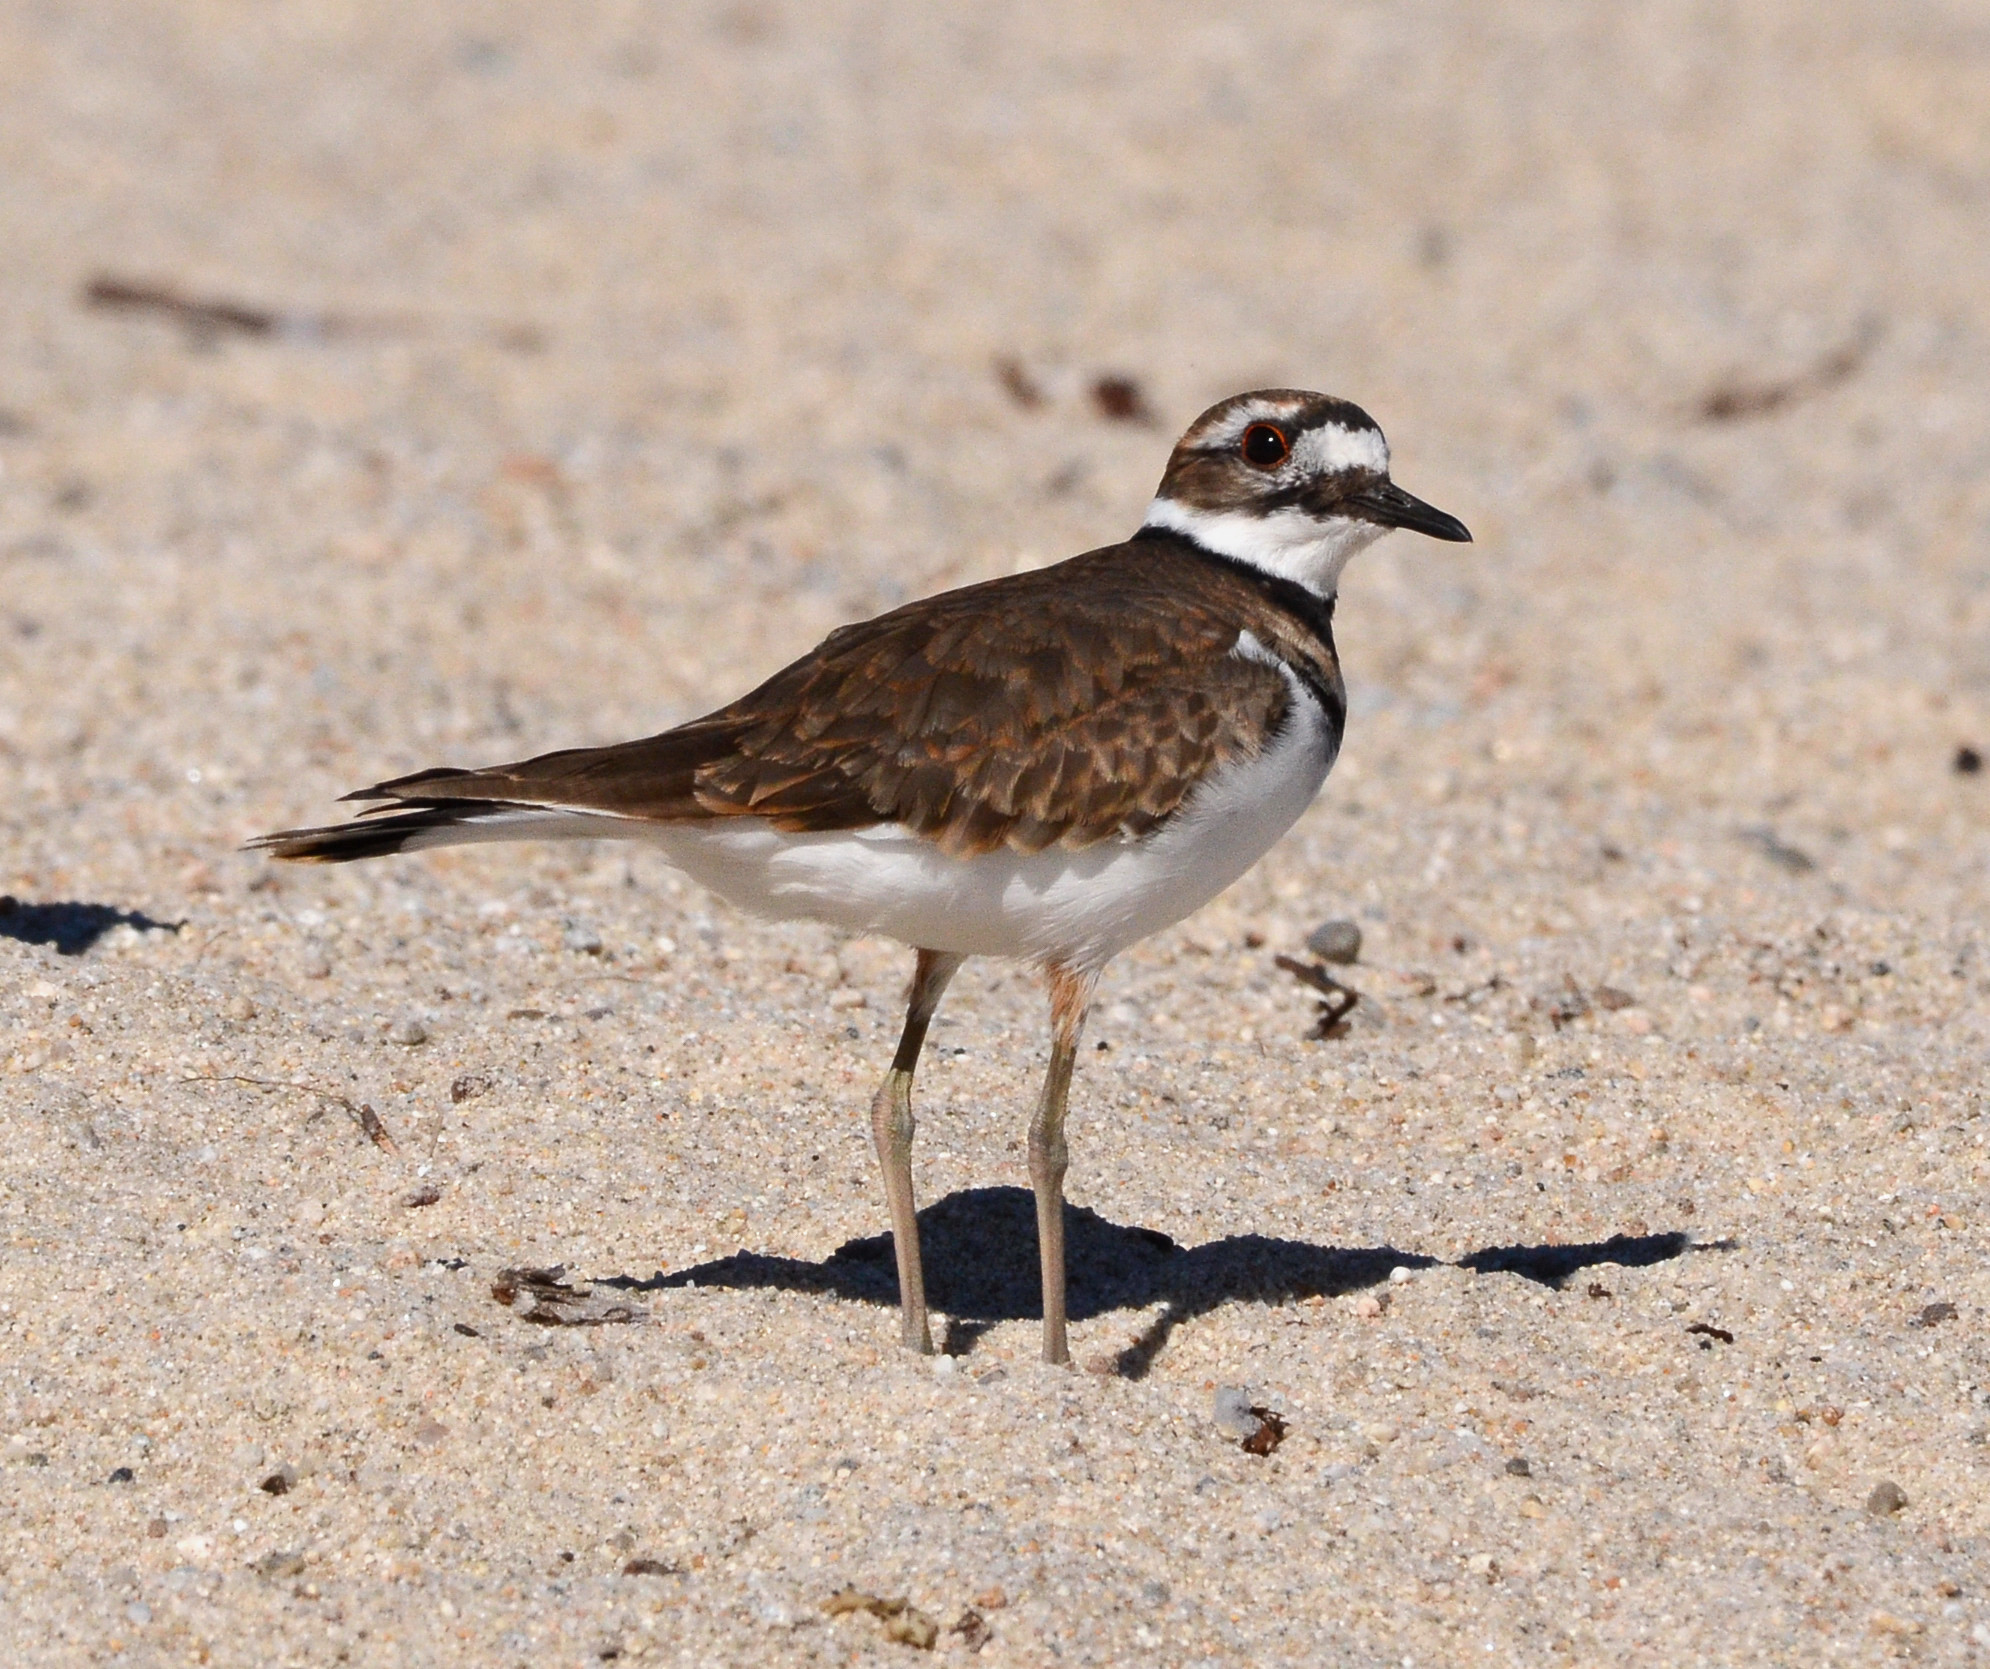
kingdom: Animalia
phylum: Chordata
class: Aves
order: Charadriiformes
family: Charadriidae
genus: Charadrius
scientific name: Charadrius vociferus
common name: Killdeer
